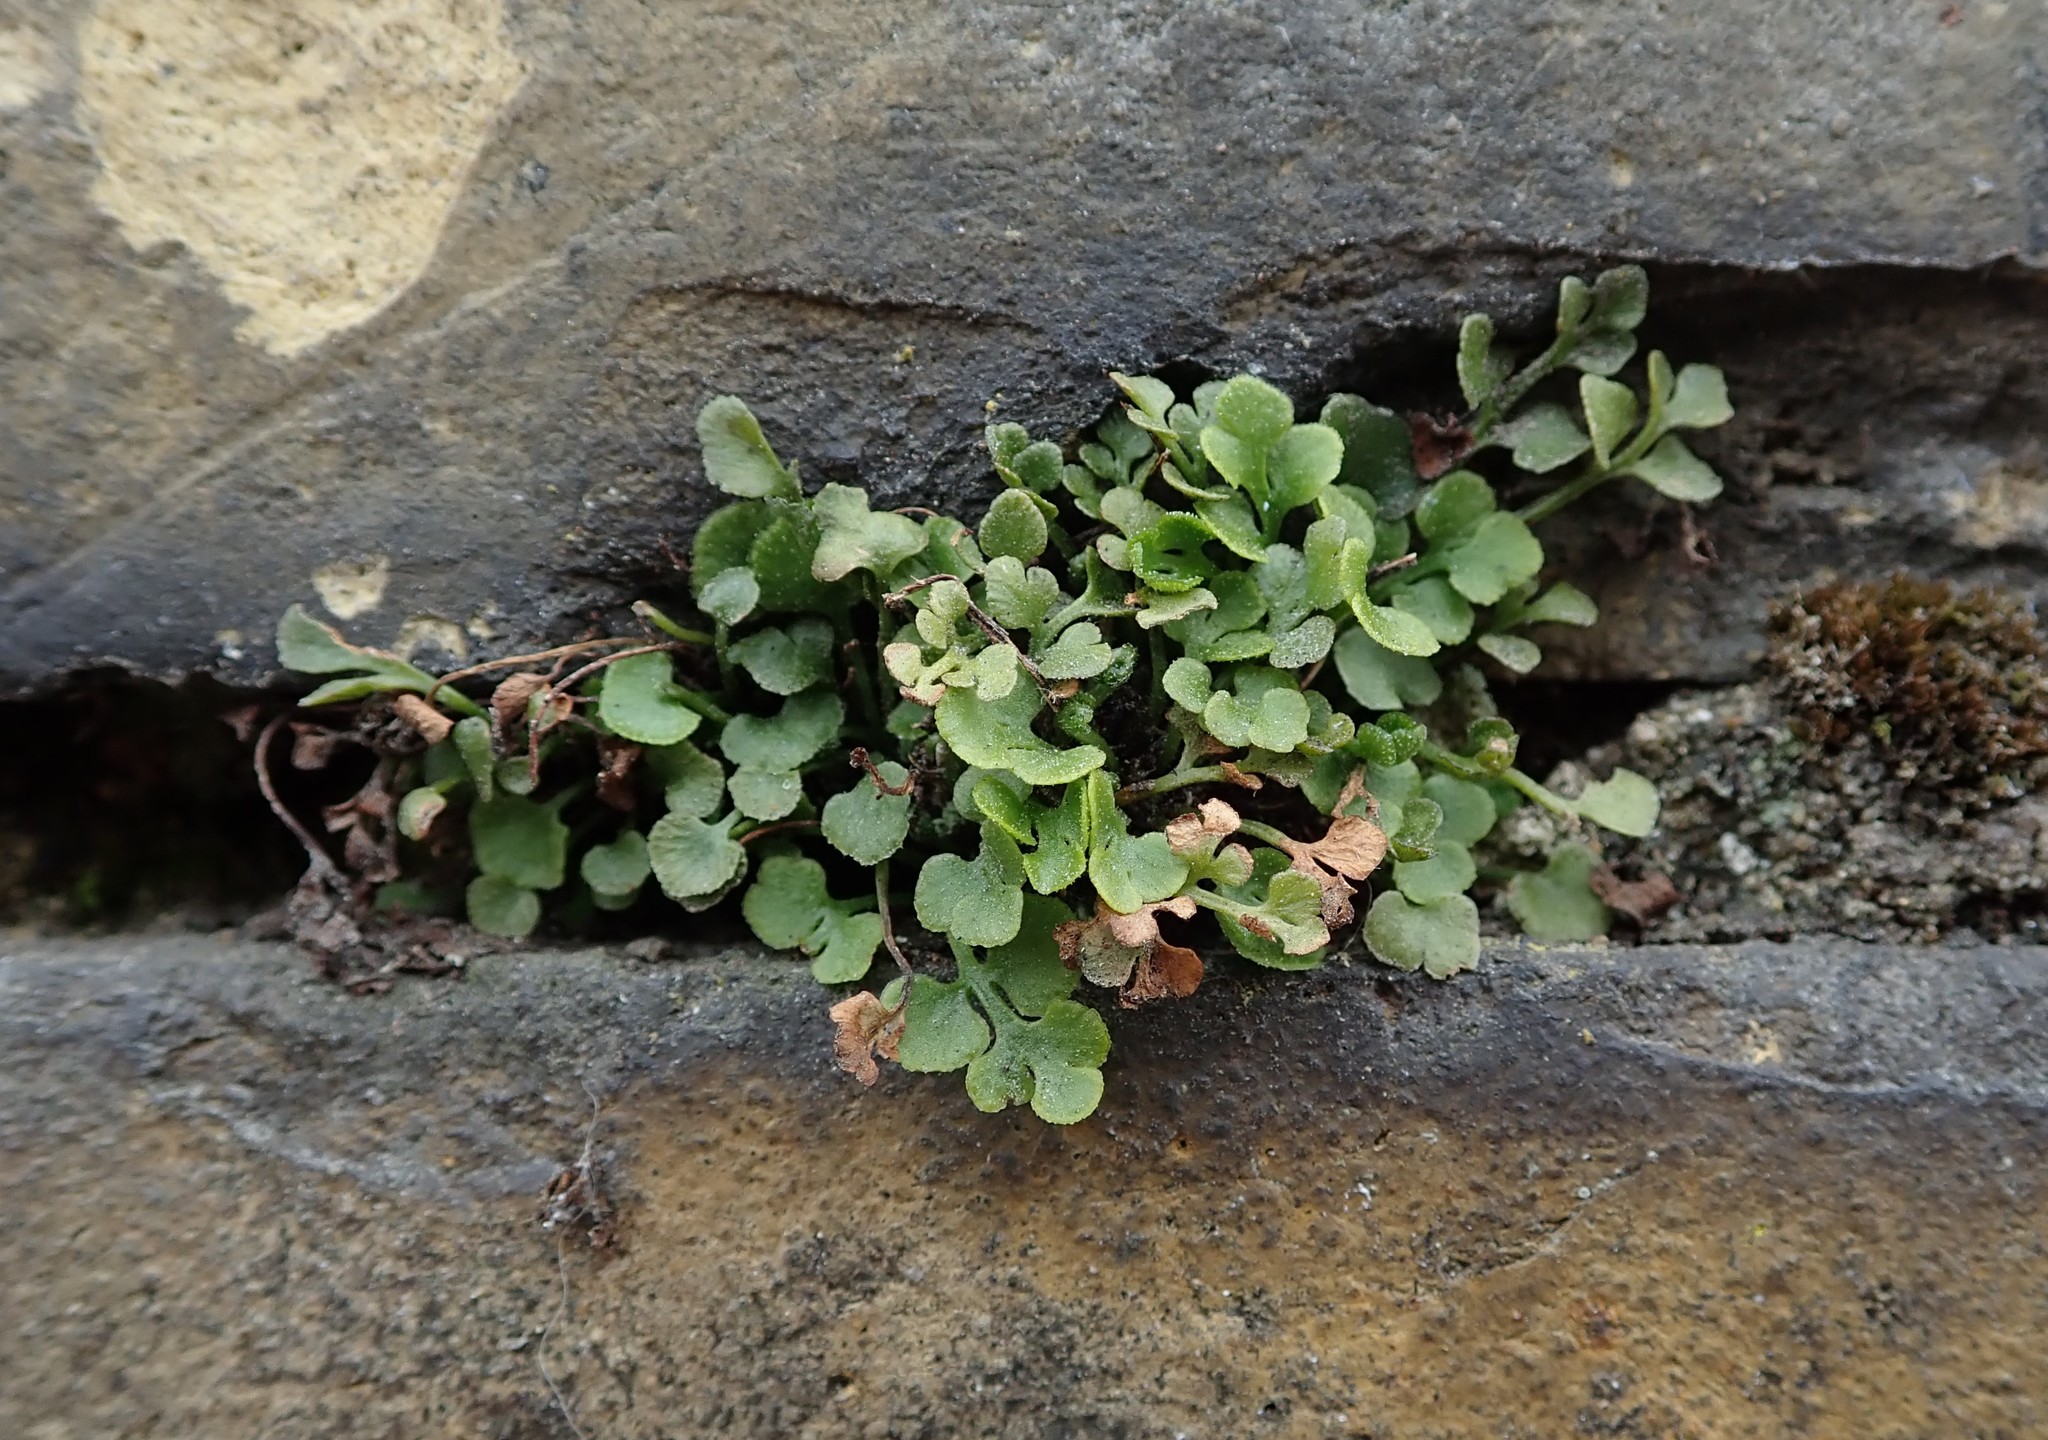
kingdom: Plantae
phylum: Tracheophyta
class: Polypodiopsida
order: Polypodiales
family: Aspleniaceae
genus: Asplenium
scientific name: Asplenium ruta-muraria
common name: Wall-rue
